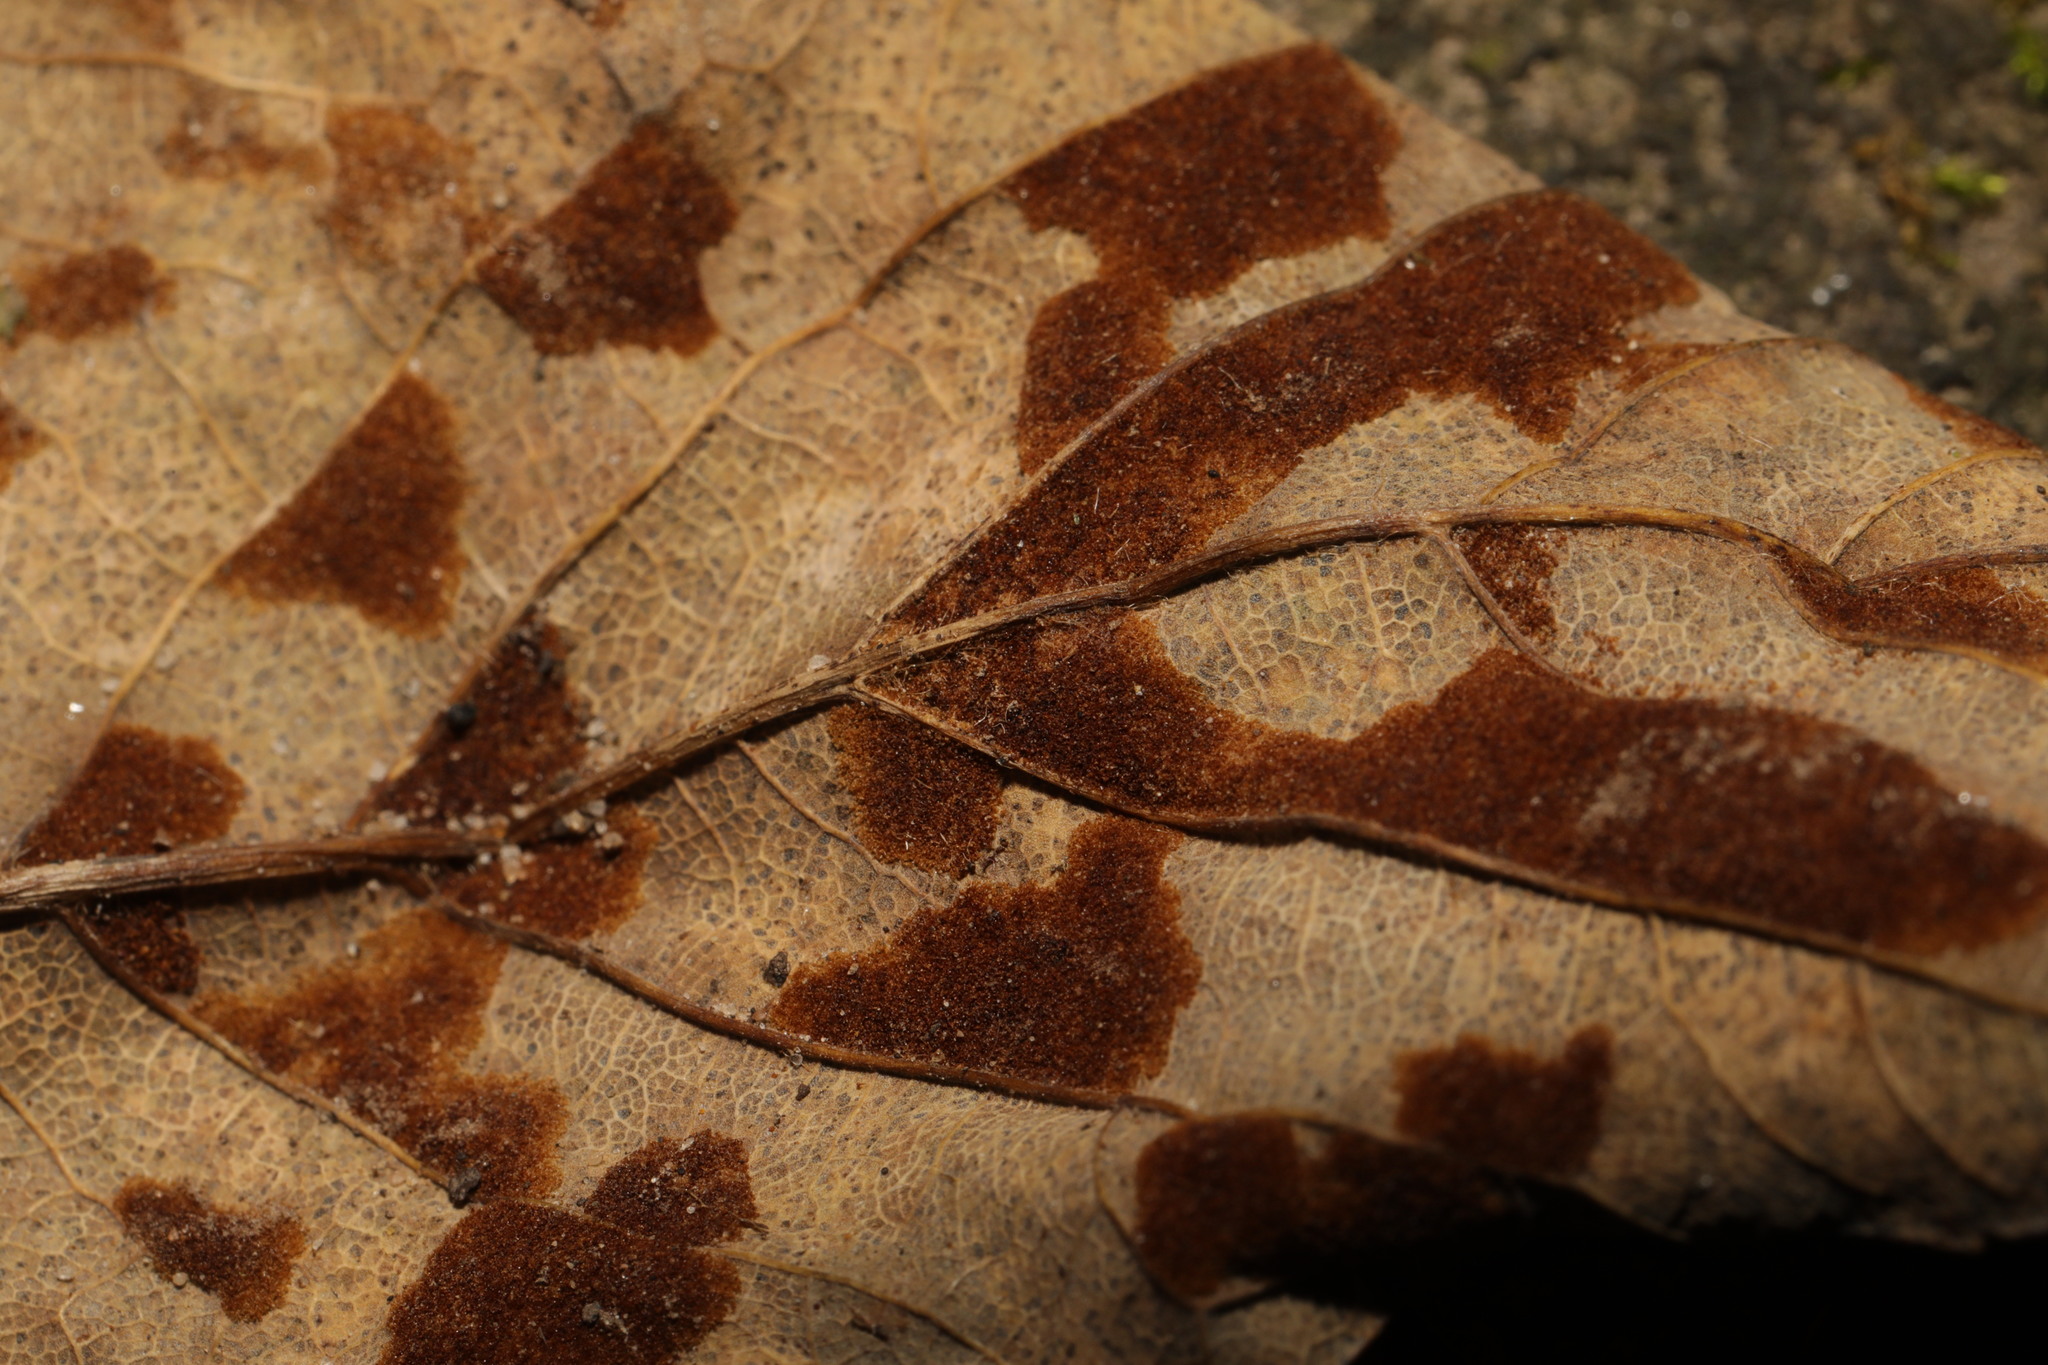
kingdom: Animalia
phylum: Arthropoda
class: Arachnida
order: Trombidiformes
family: Eriophyidae
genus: Aceria
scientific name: Aceria pseudoplatani
